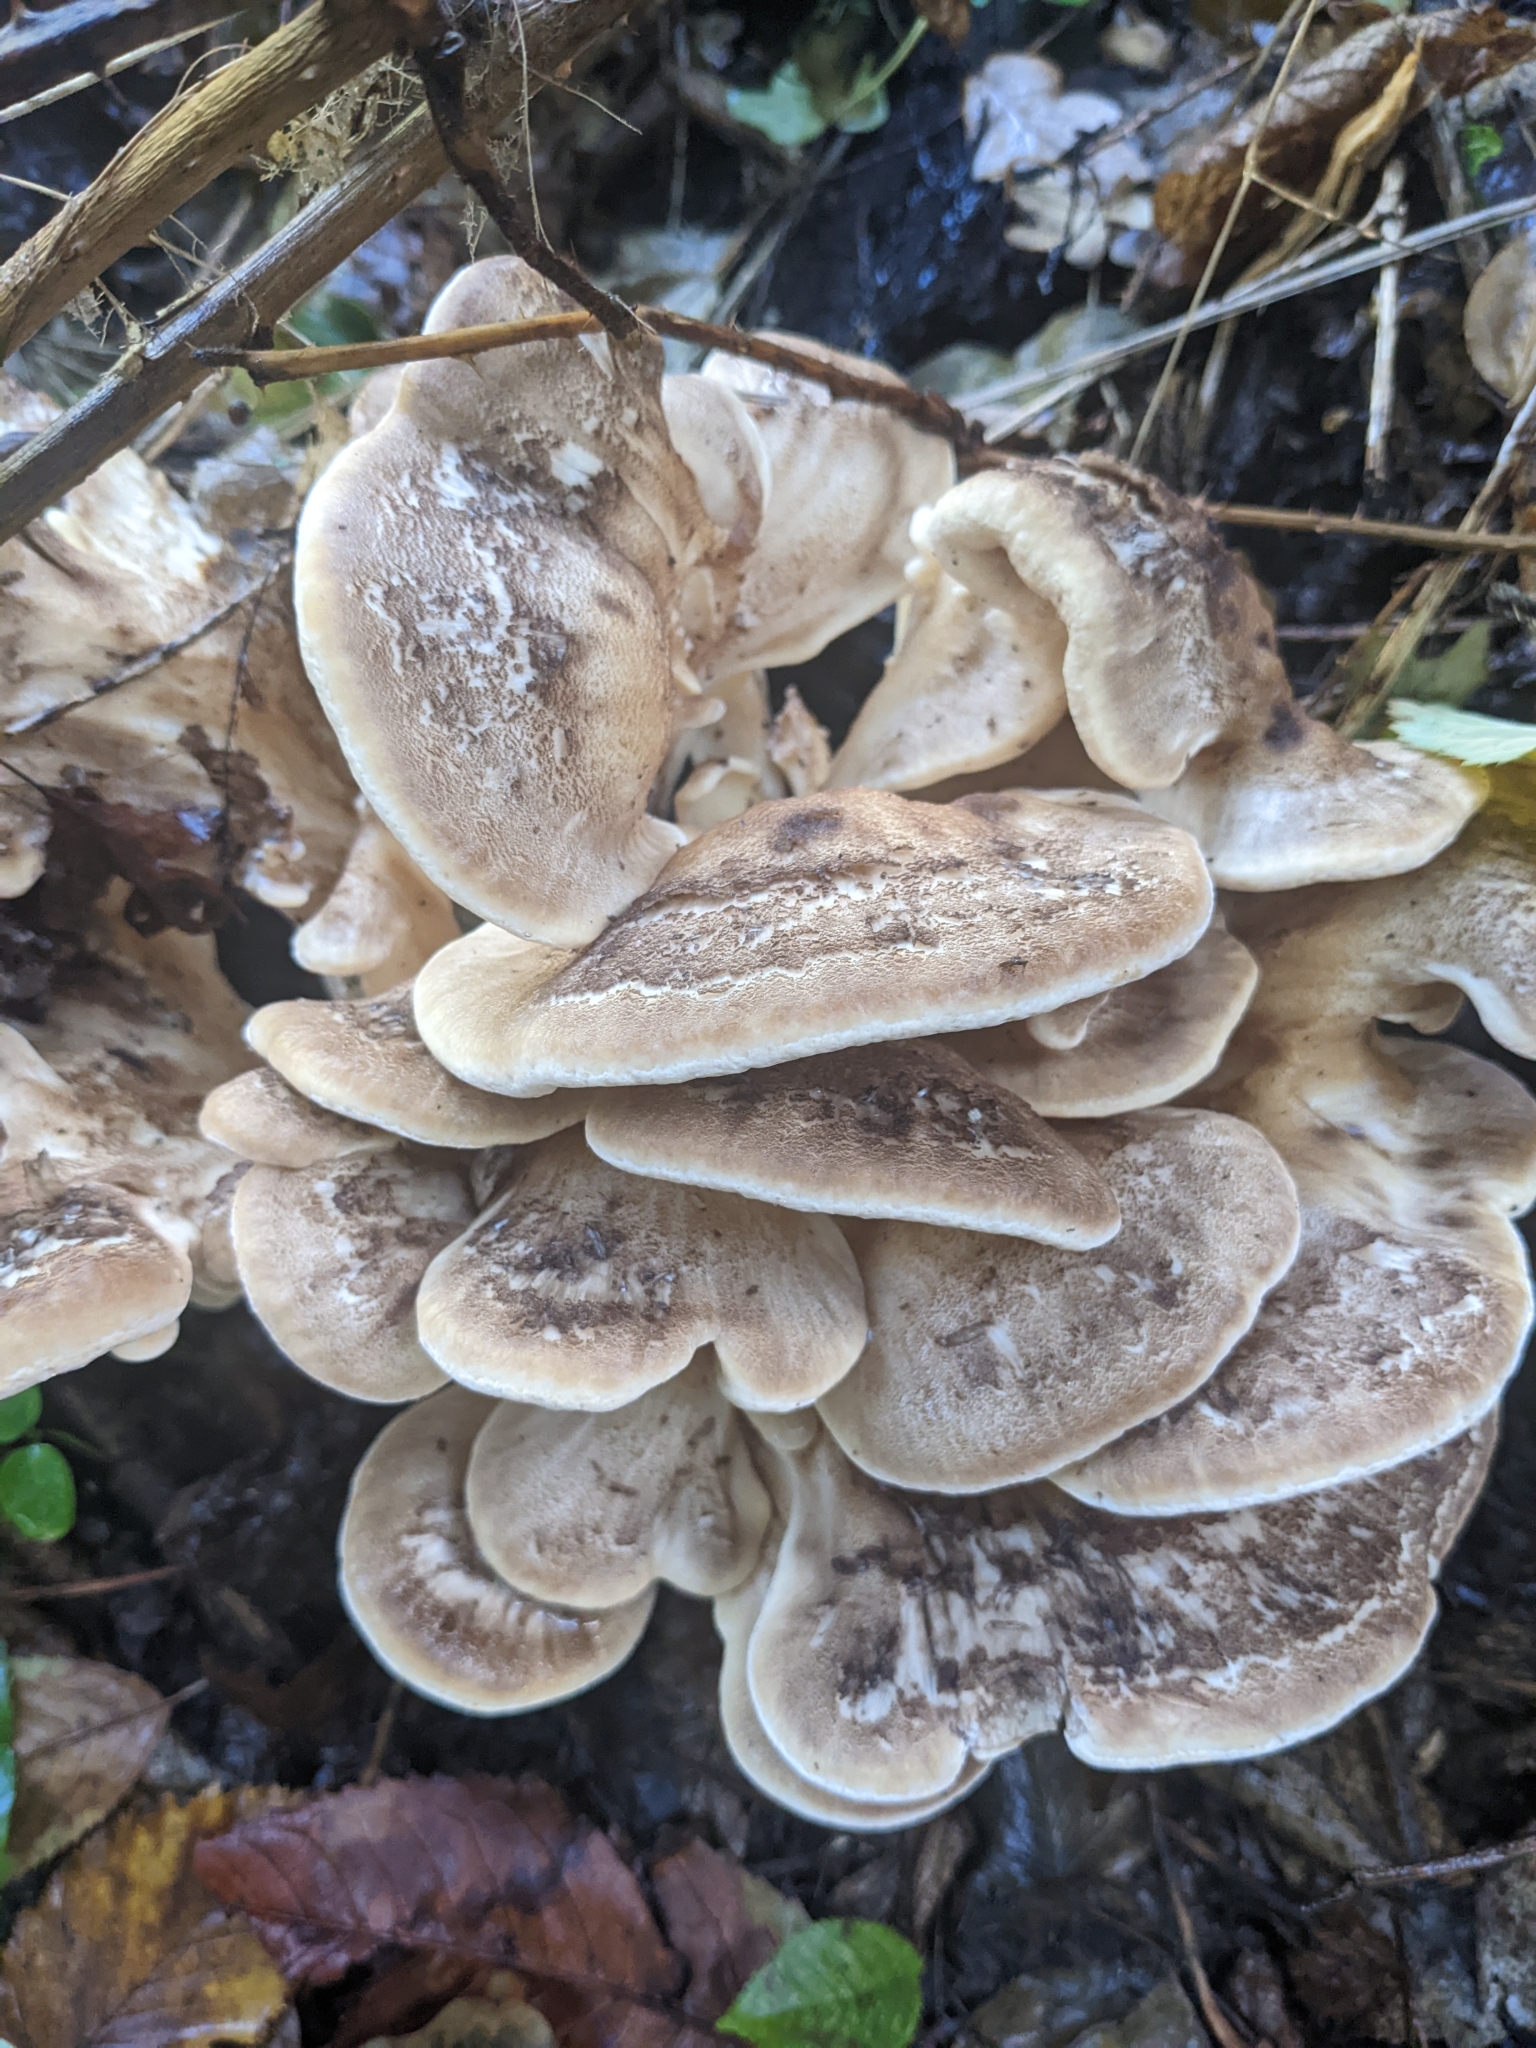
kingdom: Fungi
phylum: Basidiomycota
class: Agaricomycetes
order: Polyporales
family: Meripilaceae
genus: Meripilus
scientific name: Meripilus giganteus
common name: Giant polypore
